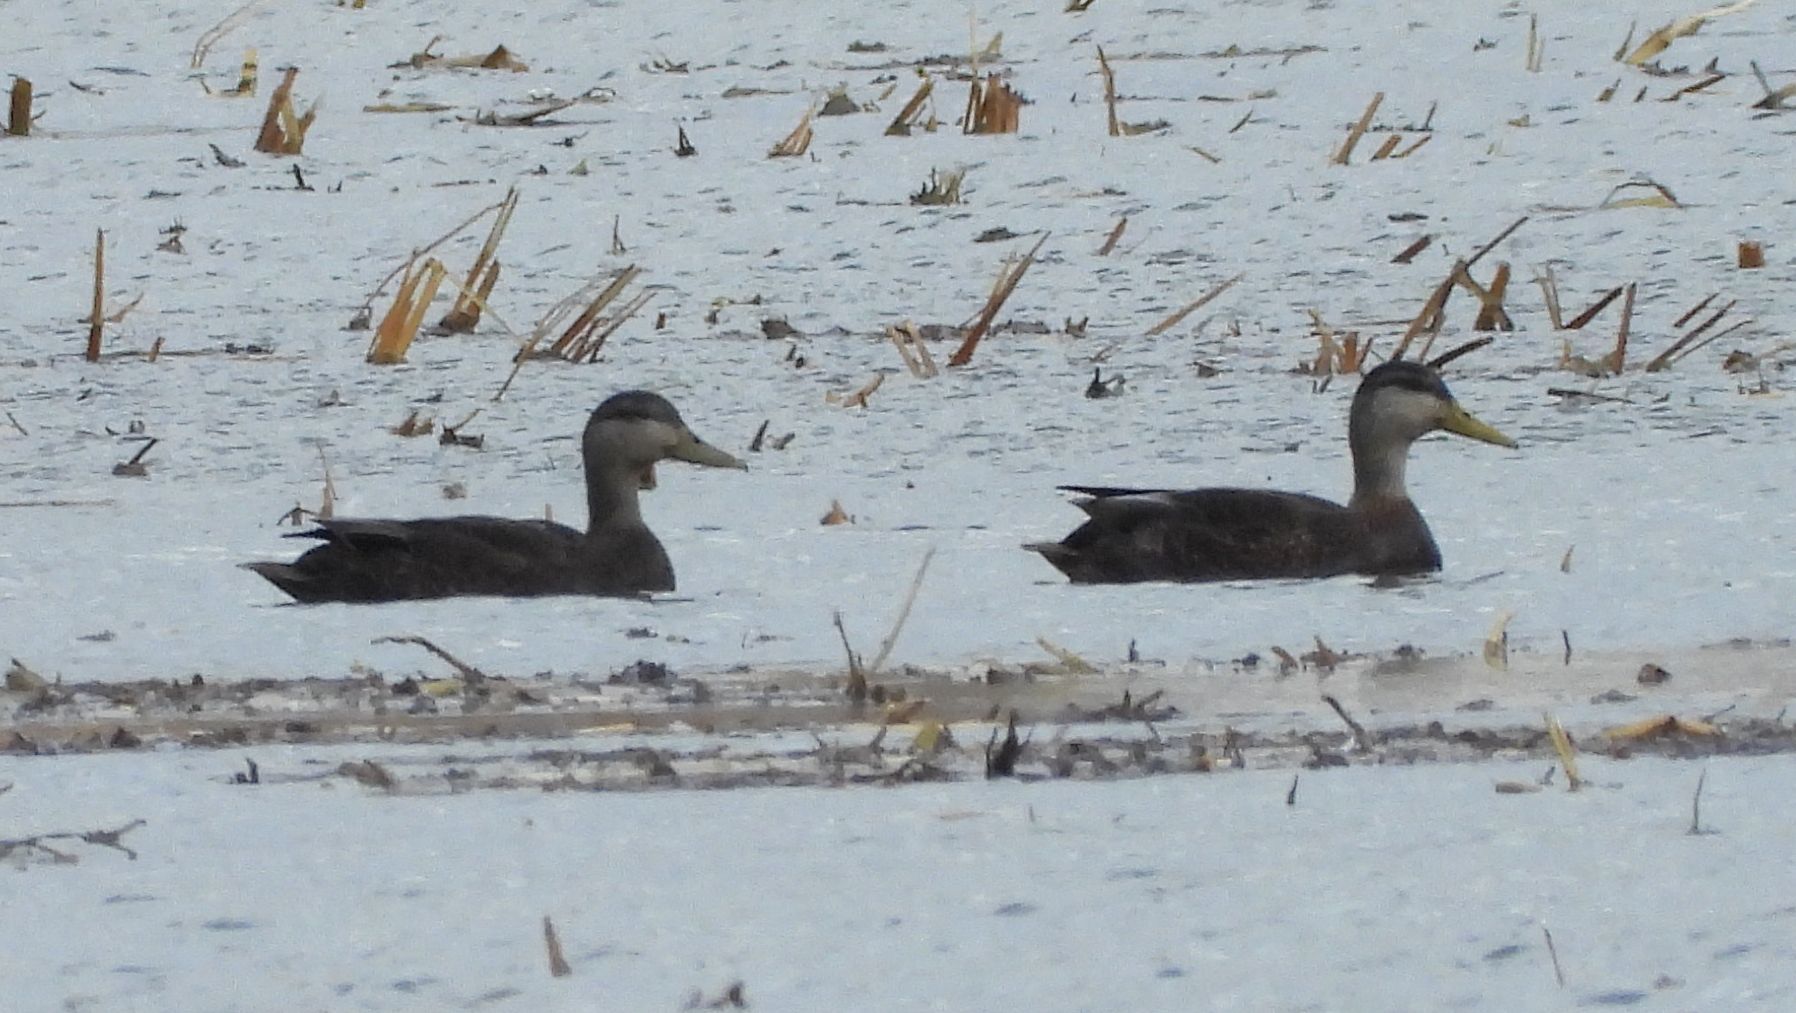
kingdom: Animalia
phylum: Chordata
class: Aves
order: Anseriformes
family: Anatidae
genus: Anas
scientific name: Anas rubripes
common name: American black duck
